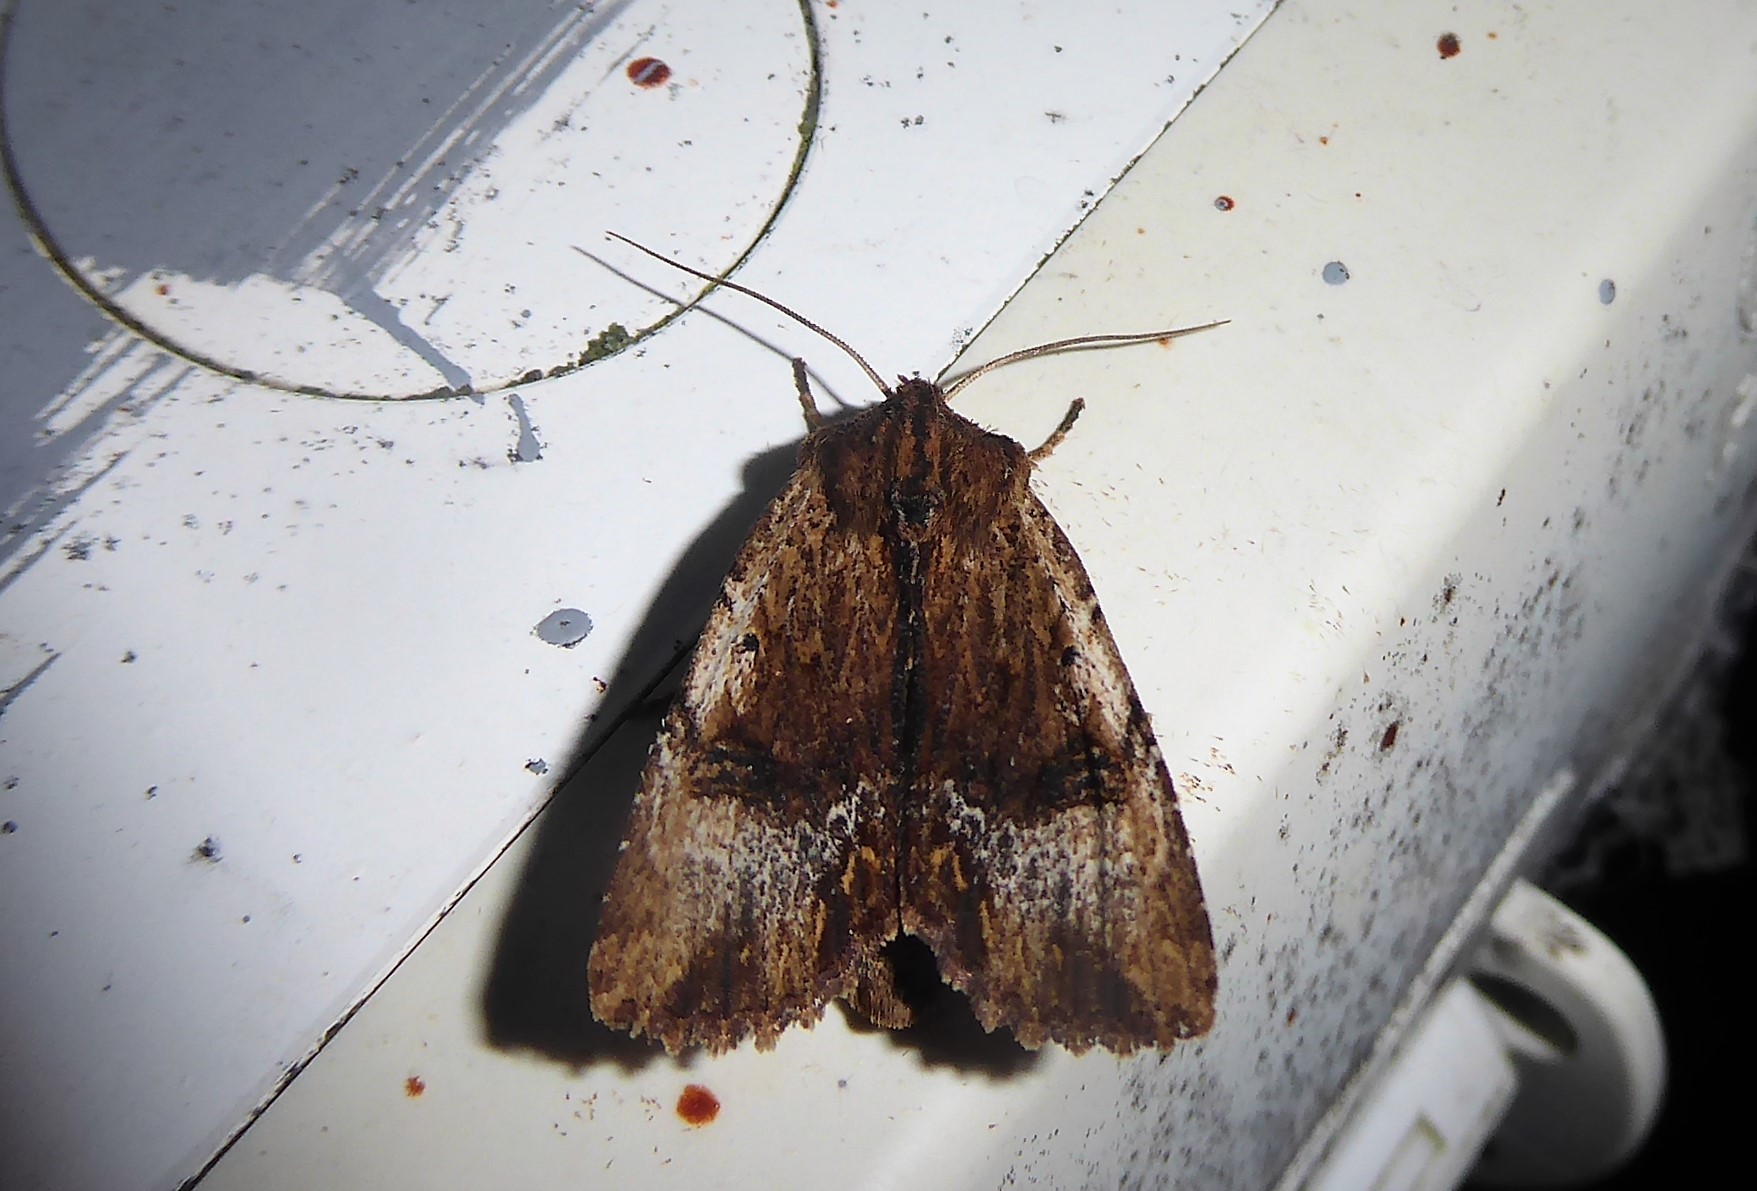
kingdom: Animalia
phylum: Arthropoda
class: Insecta
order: Lepidoptera
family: Noctuidae
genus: Ichneutica
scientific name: Ichneutica
